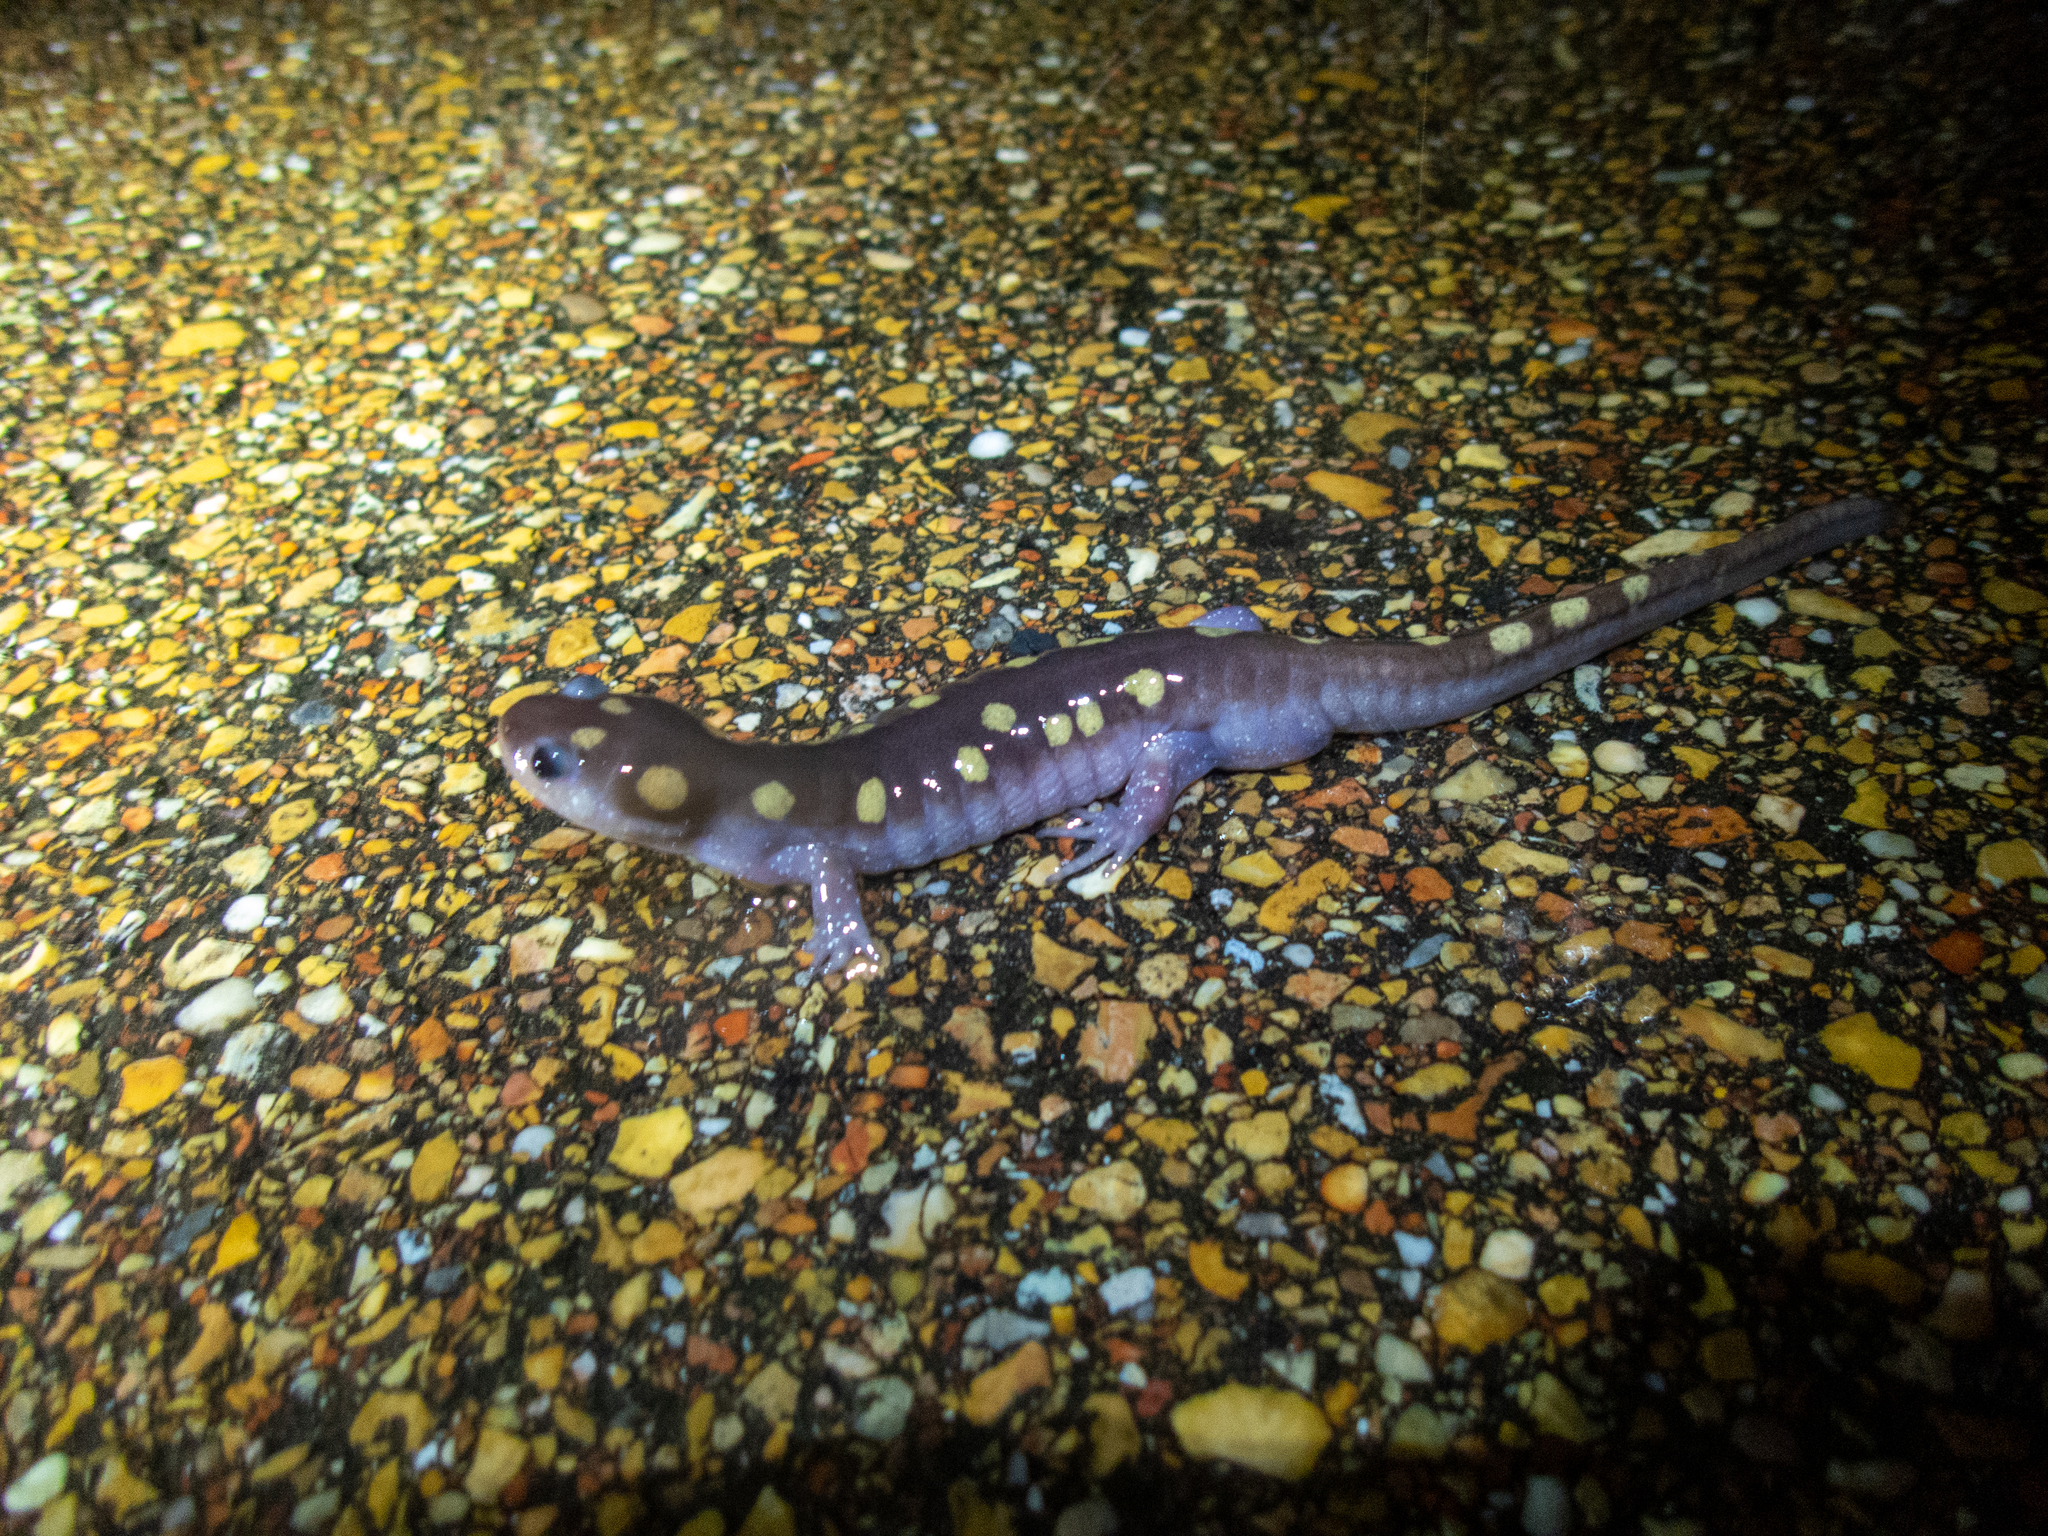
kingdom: Animalia
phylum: Chordata
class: Amphibia
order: Caudata
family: Ambystomatidae
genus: Ambystoma
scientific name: Ambystoma maculatum
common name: Spotted salamander
